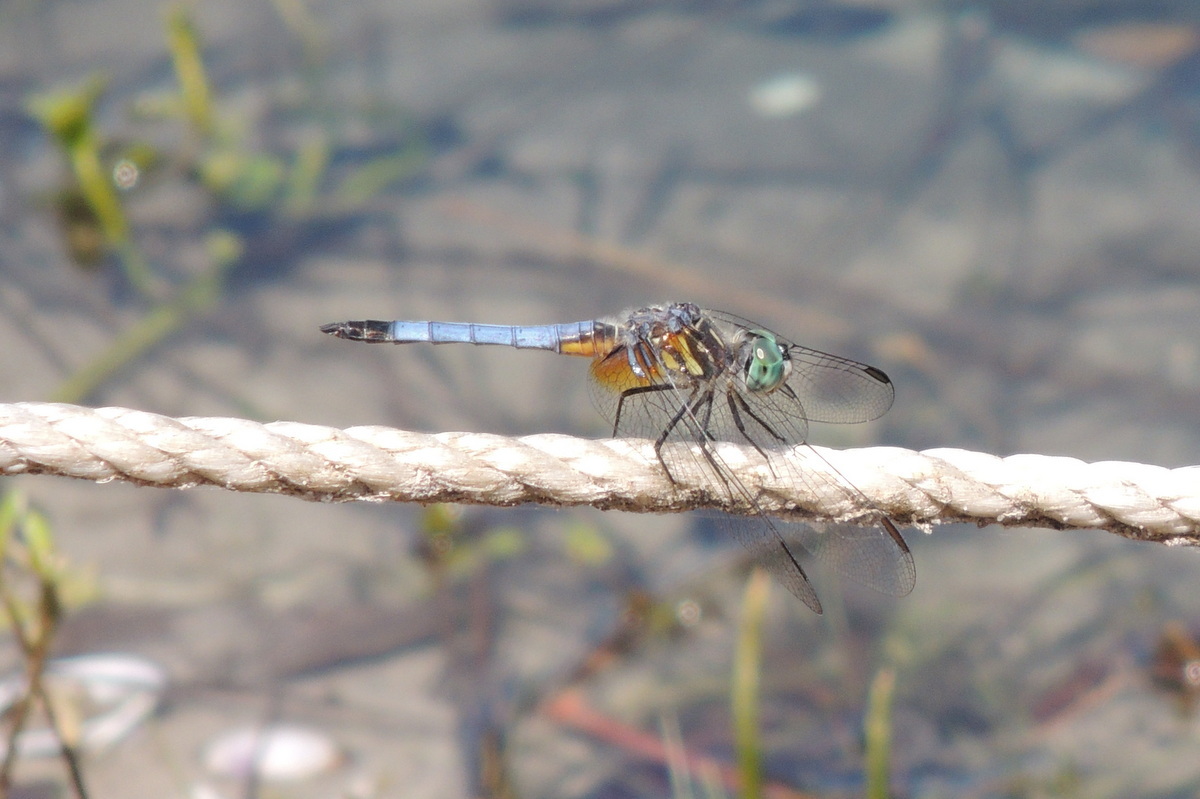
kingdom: Animalia
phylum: Arthropoda
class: Insecta
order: Odonata
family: Libellulidae
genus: Pachydiplax
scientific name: Pachydiplax longipennis
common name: Blue dasher
